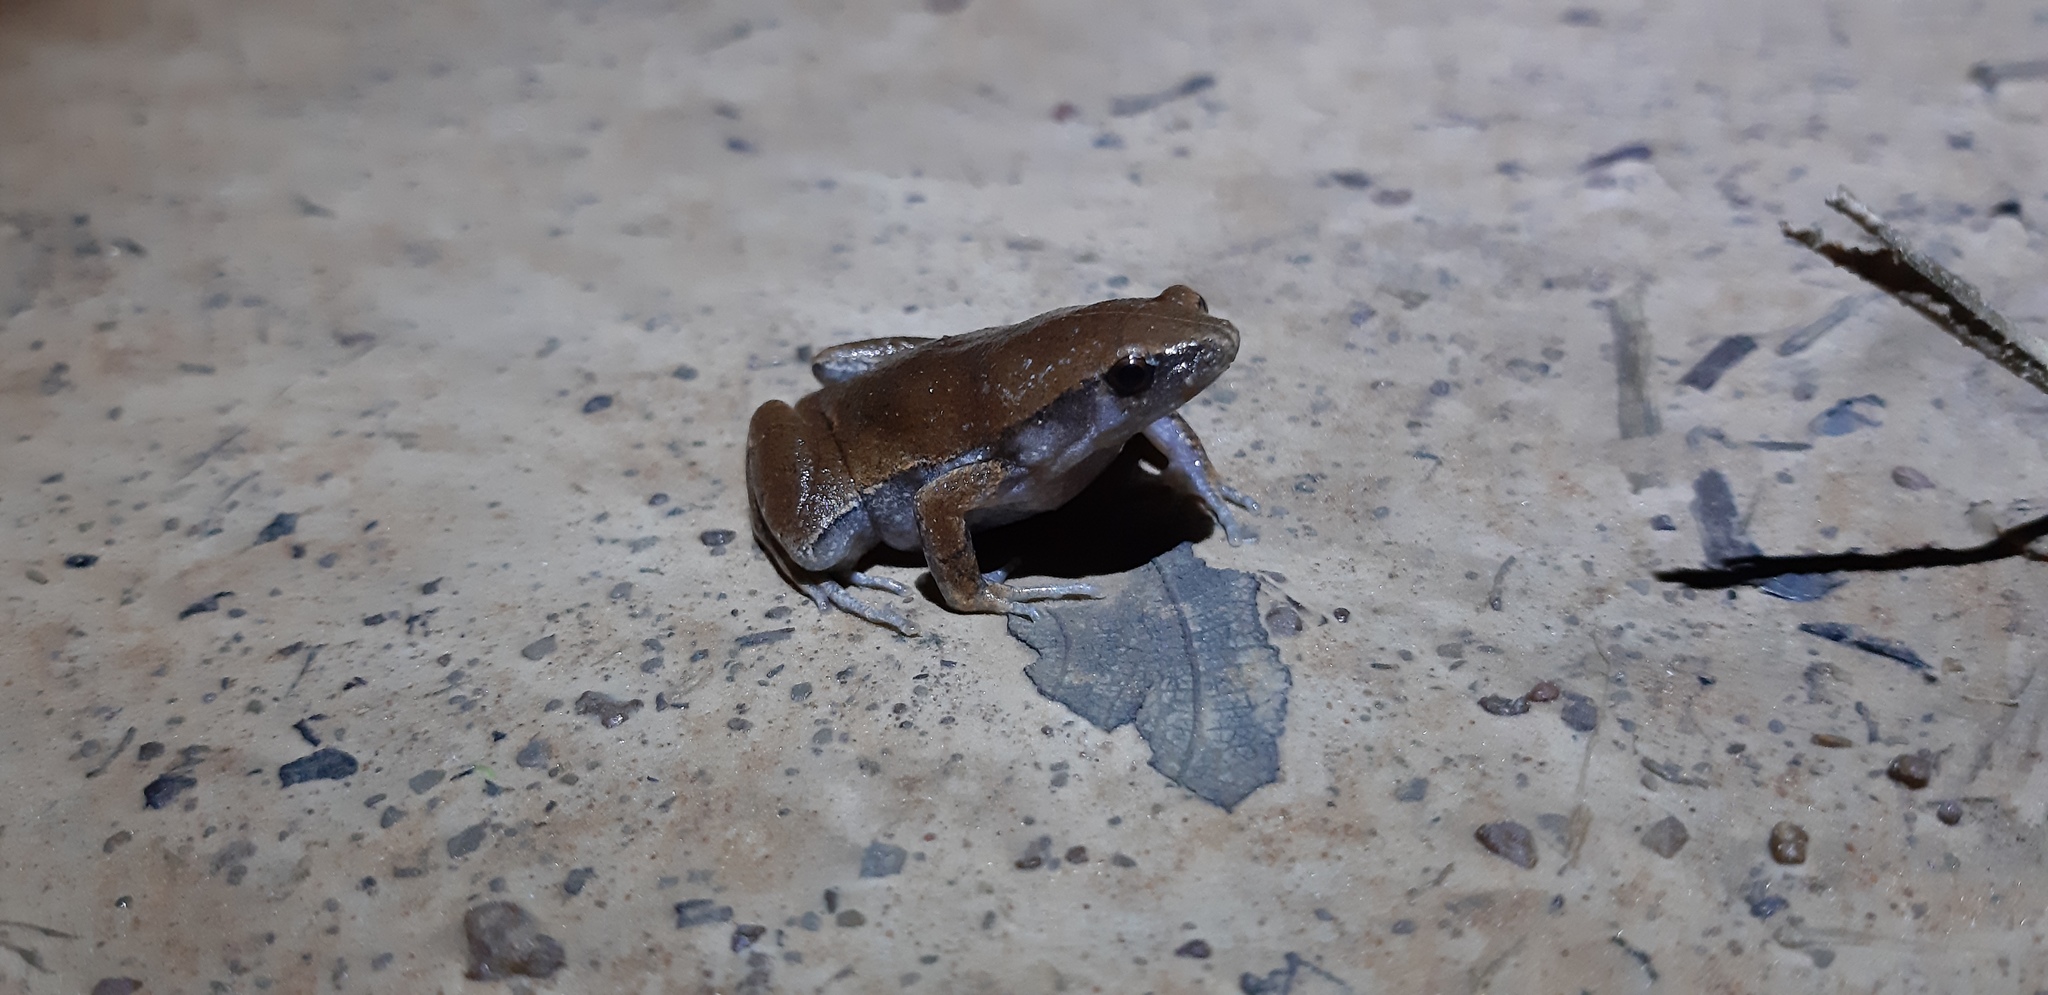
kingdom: Animalia
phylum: Chordata
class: Amphibia
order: Anura
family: Microhylidae
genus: Hamptophryne
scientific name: Hamptophryne boliviana
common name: Bolivian bleating frog
